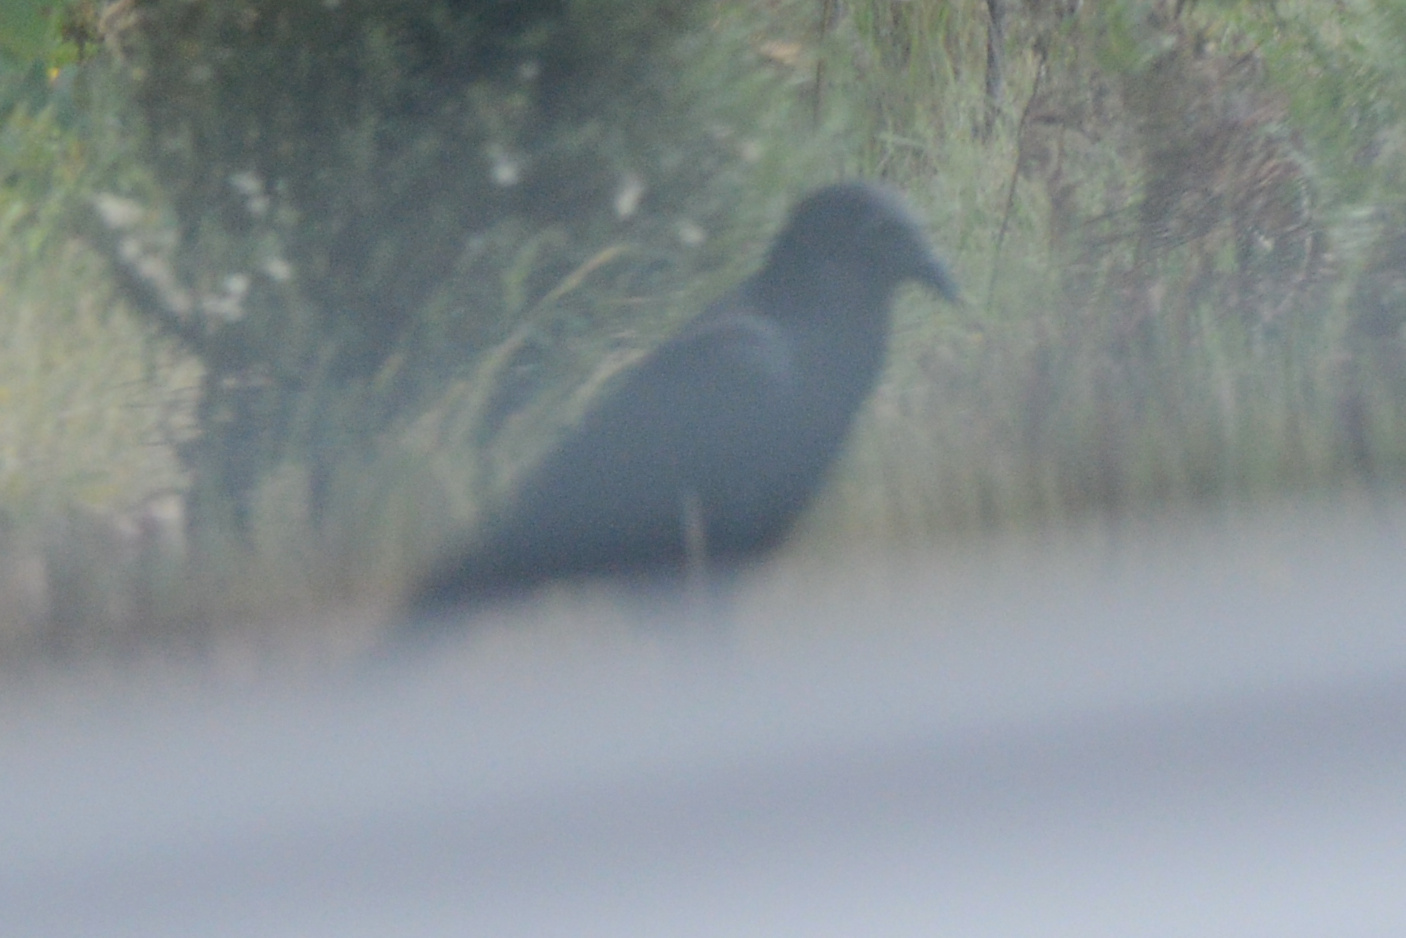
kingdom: Animalia
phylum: Chordata
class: Aves
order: Passeriformes
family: Corvidae
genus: Corvus
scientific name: Corvus tasmanicus
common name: Forest raven
